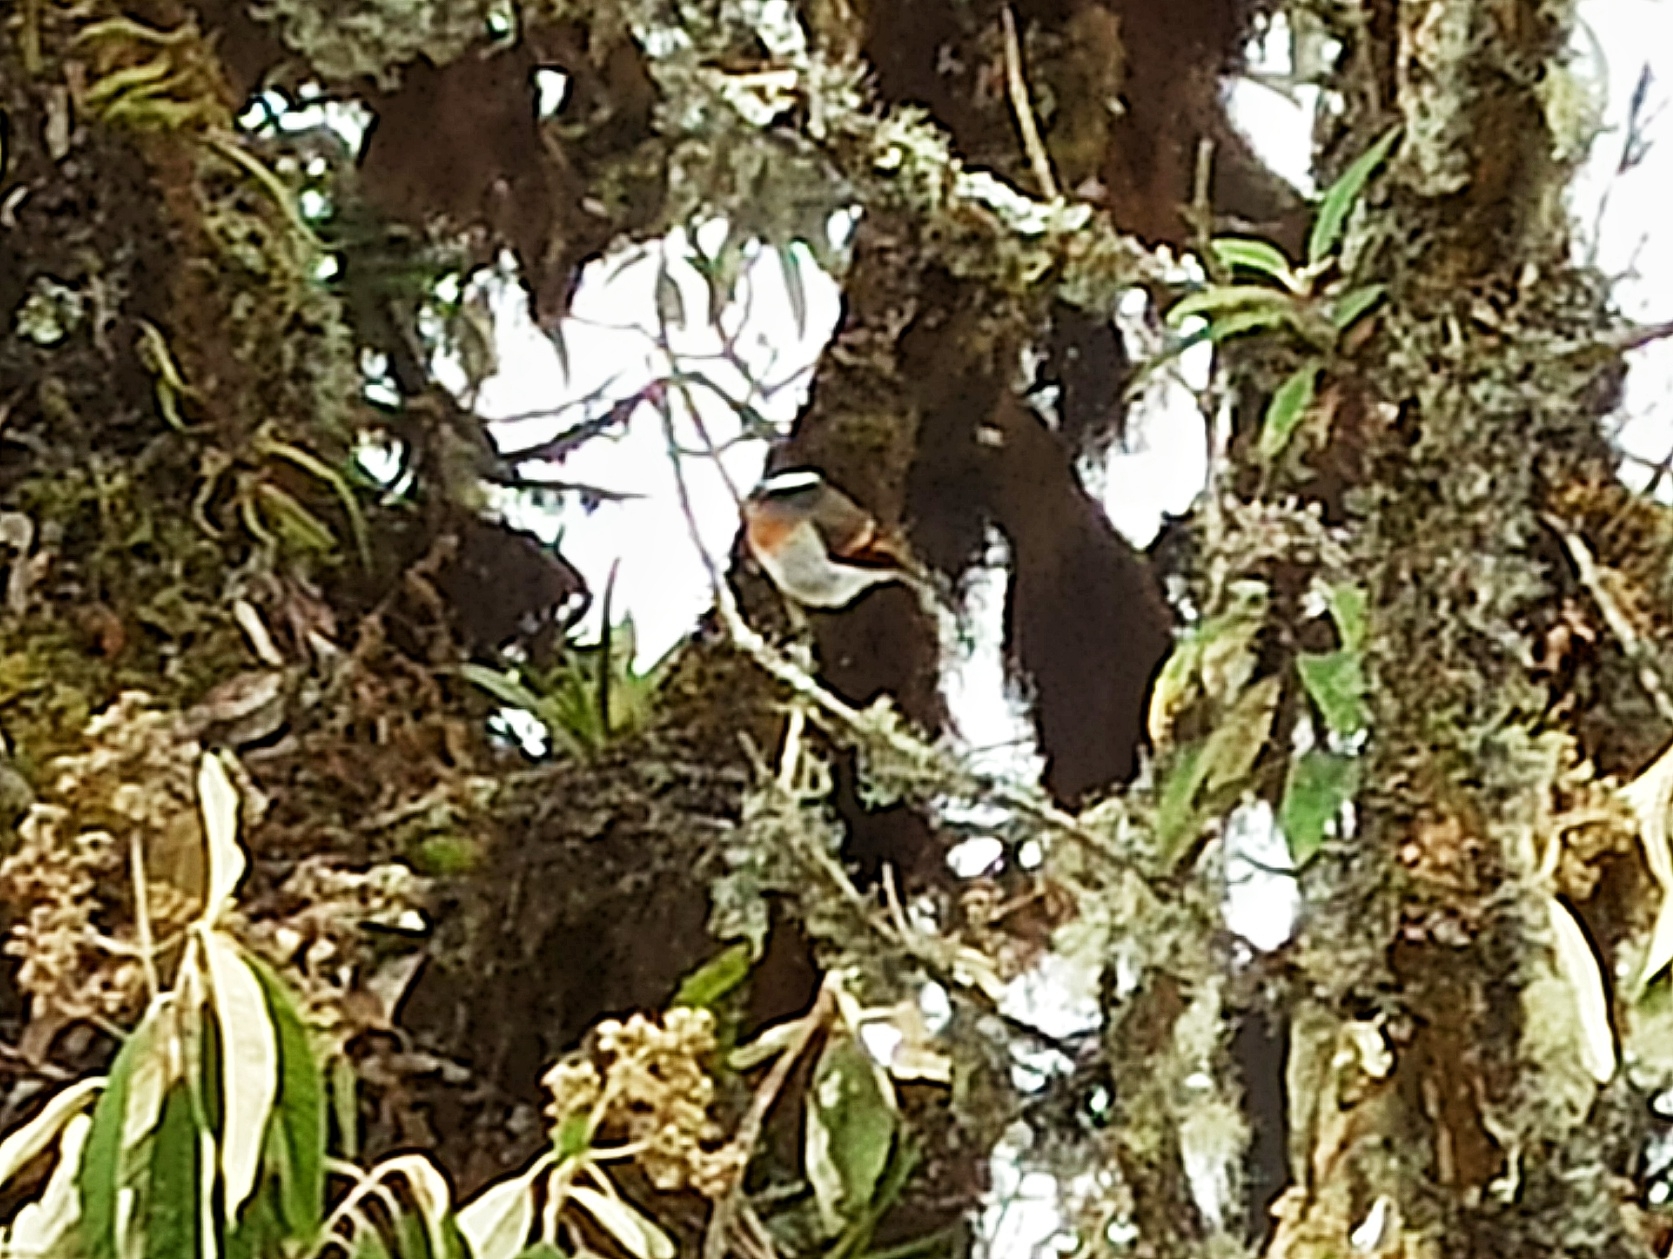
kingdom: Animalia
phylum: Chordata
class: Aves
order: Passeriformes
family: Tyrannidae
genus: Ochthoeca
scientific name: Ochthoeca rufipectoralis
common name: Rufous-breasted chat-tyrant
